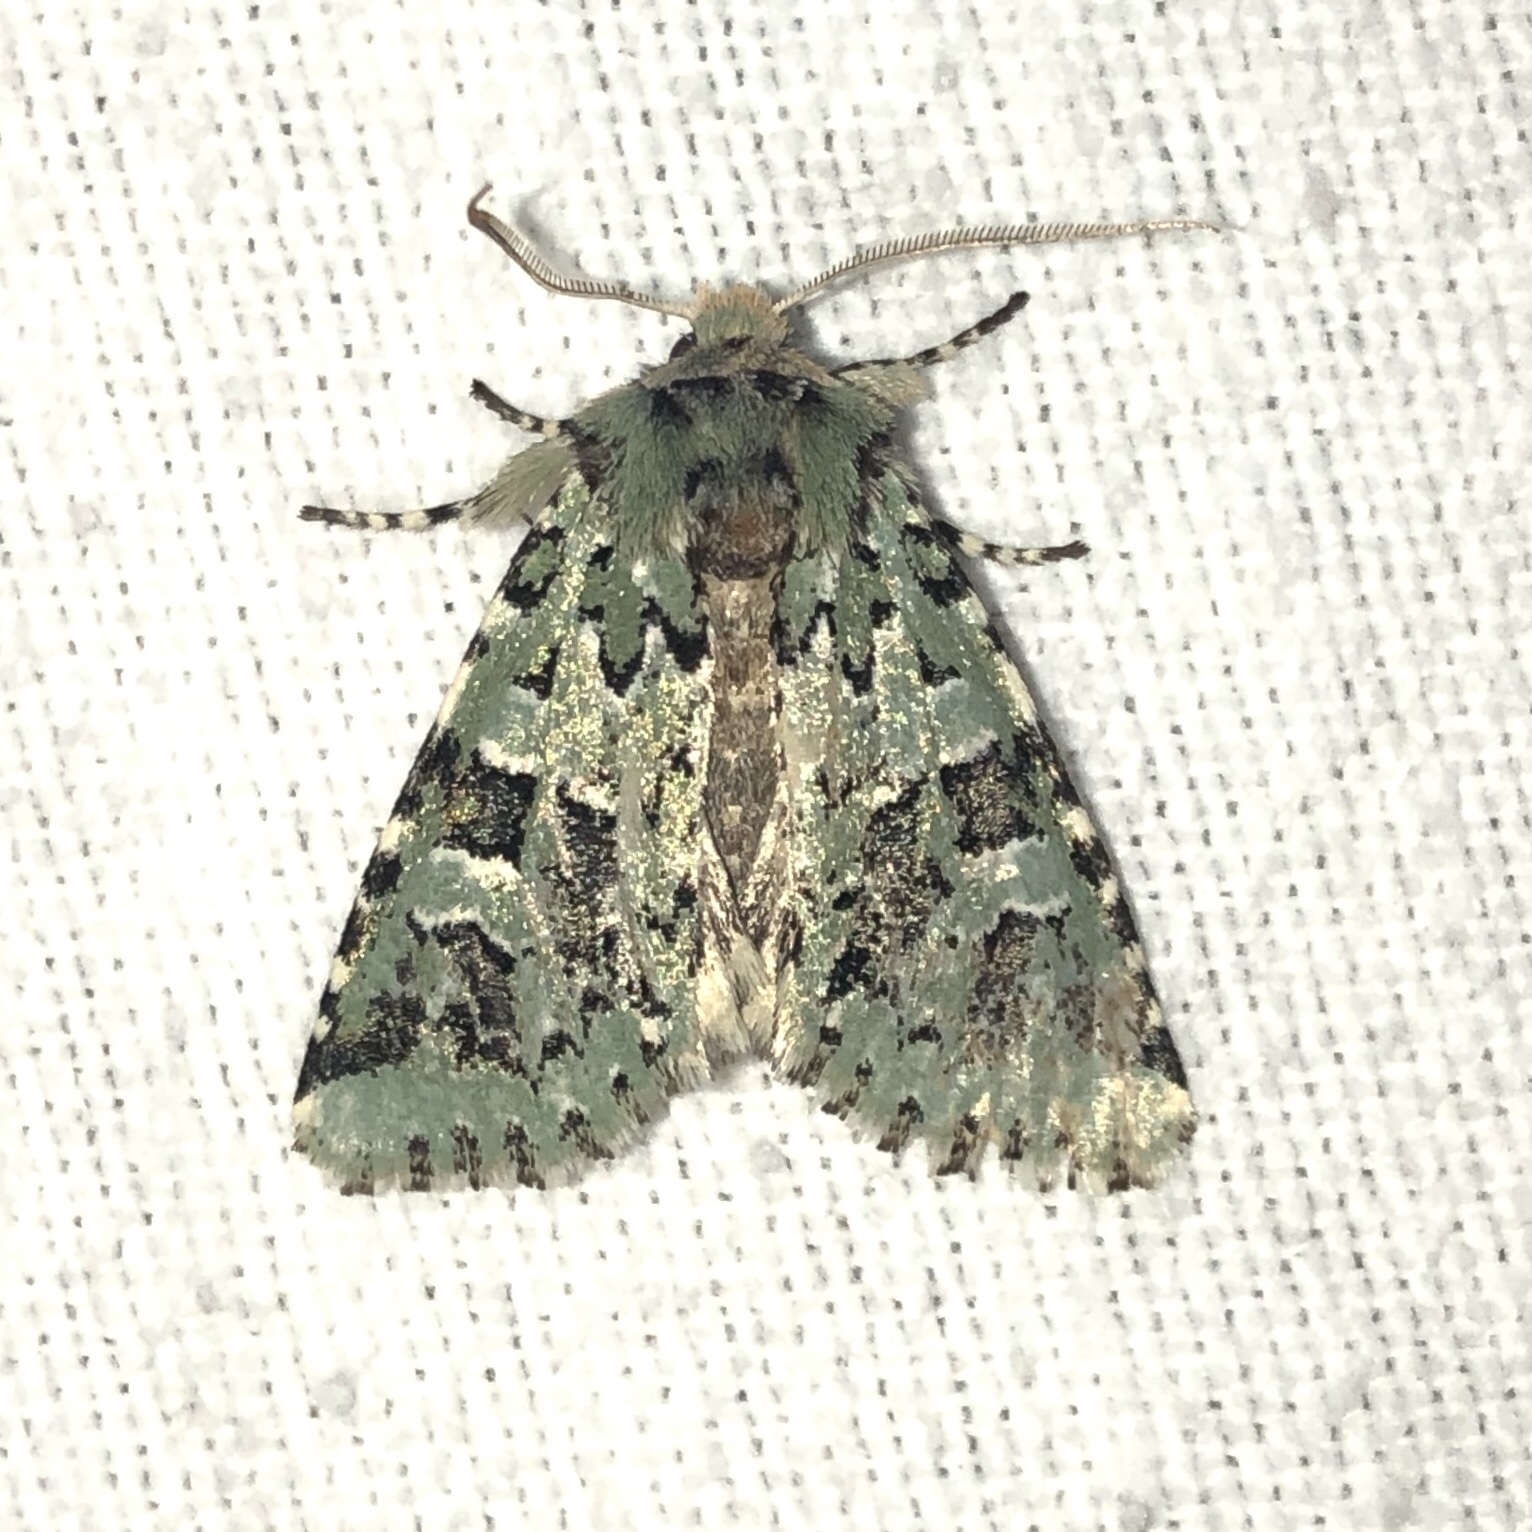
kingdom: Animalia
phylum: Arthropoda
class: Insecta
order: Lepidoptera
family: Noctuidae
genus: Feralia
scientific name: Feralia comstocki
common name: Comstock's sallow
